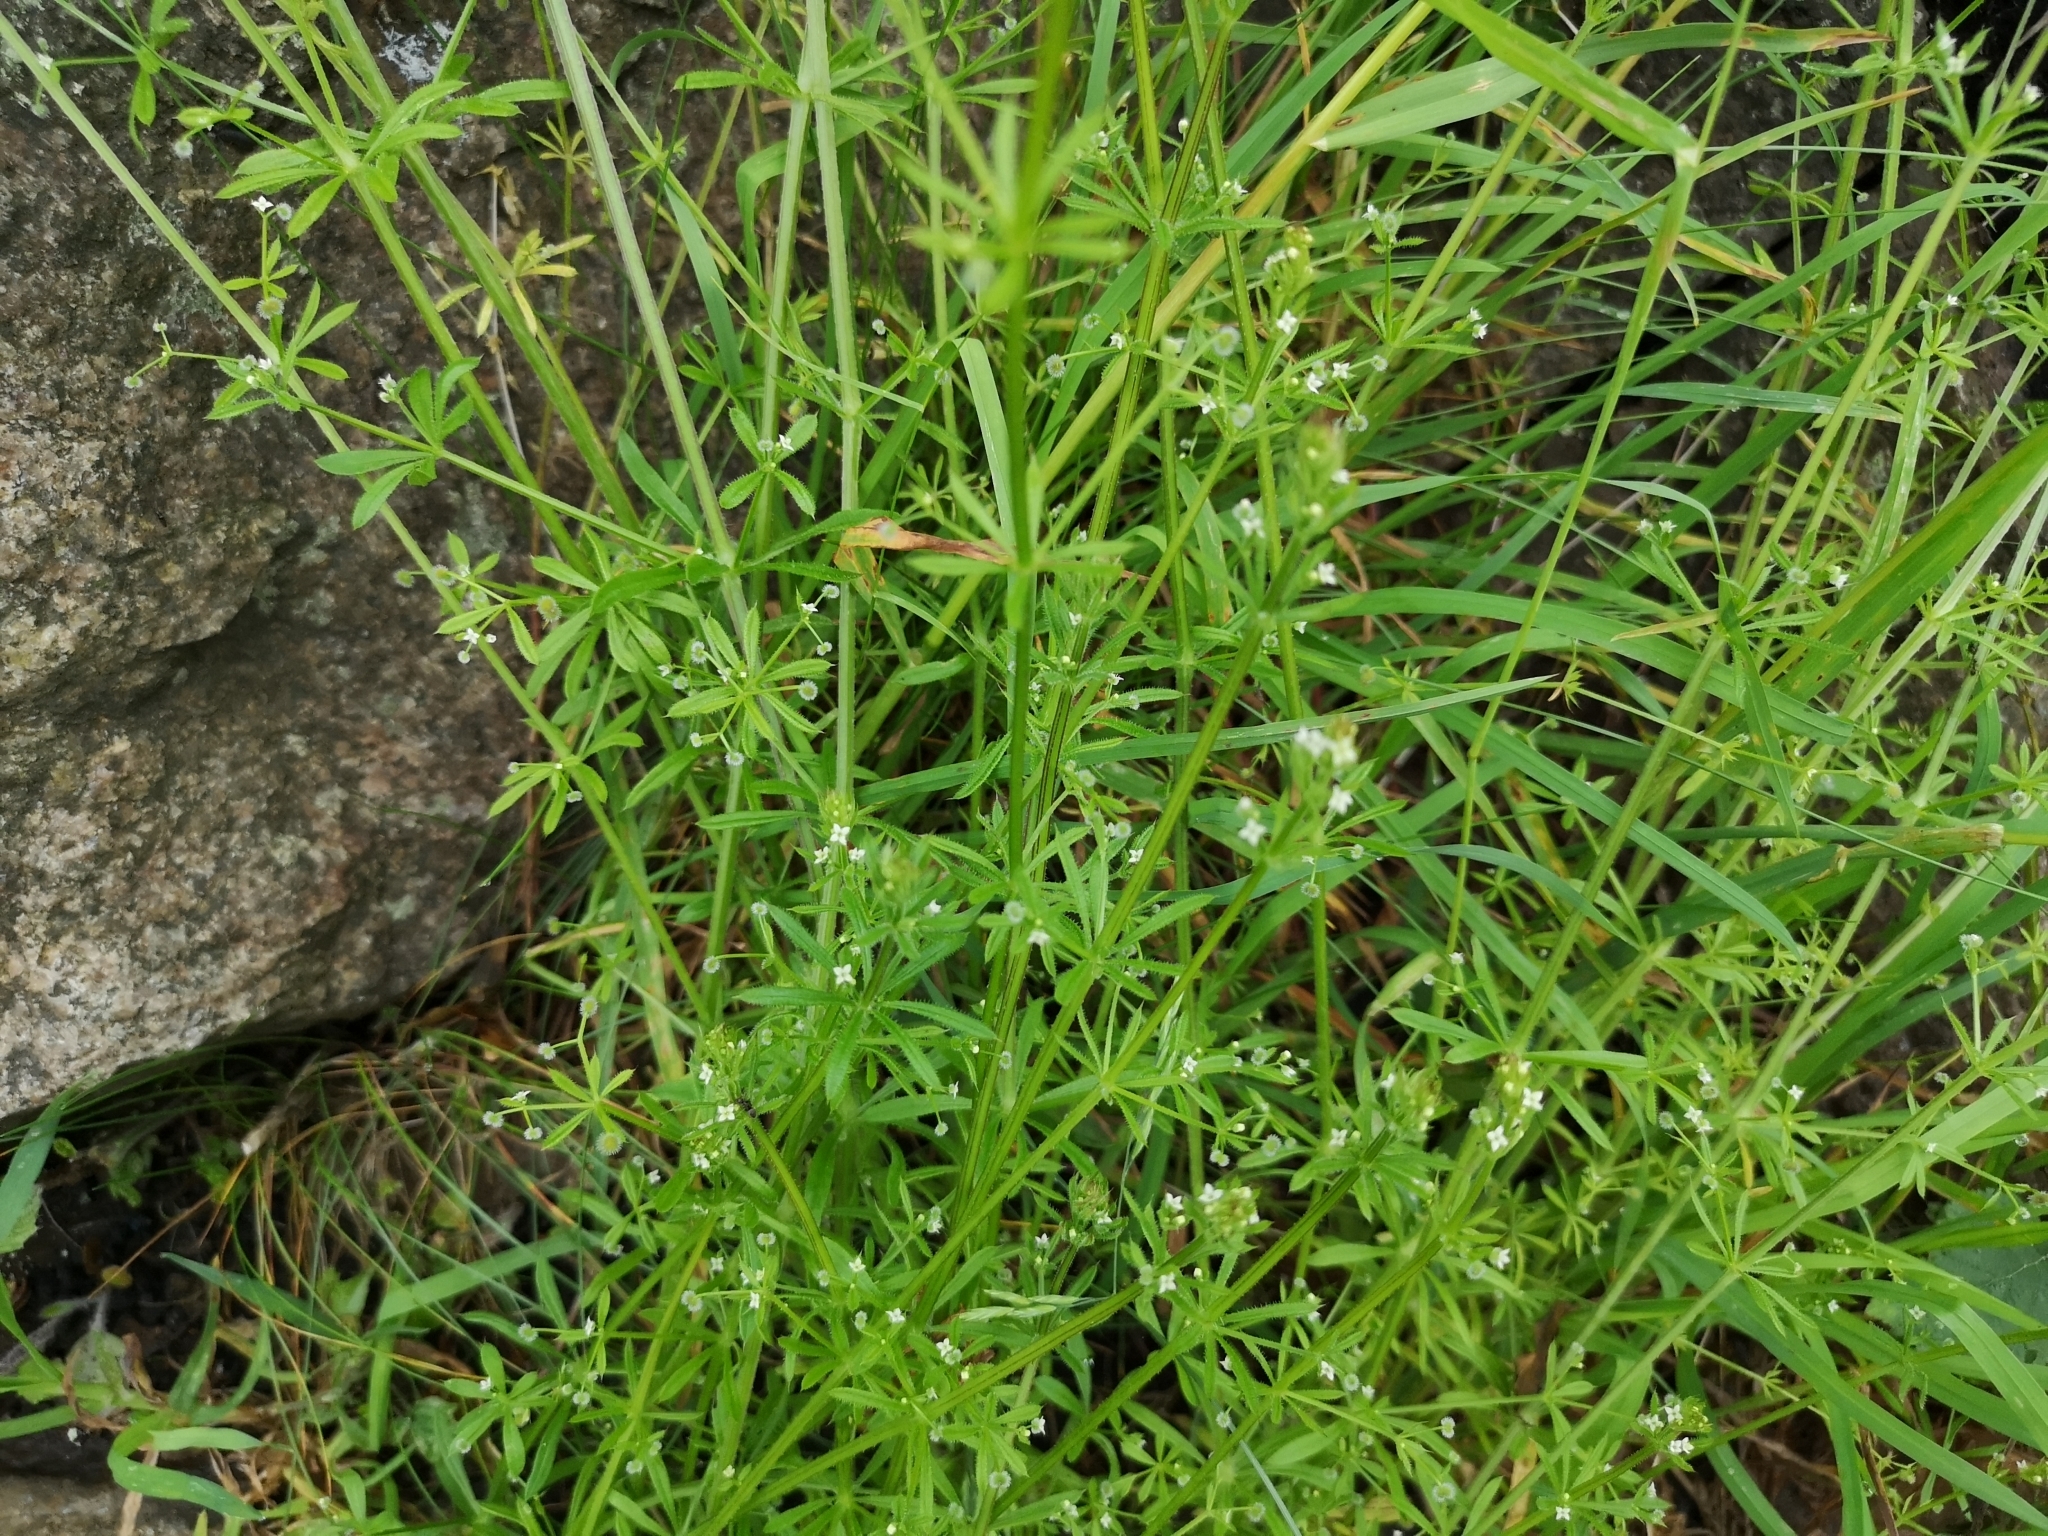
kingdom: Plantae
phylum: Tracheophyta
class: Magnoliopsida
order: Gentianales
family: Rubiaceae
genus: Galium
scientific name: Galium aparine
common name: Cleavers
